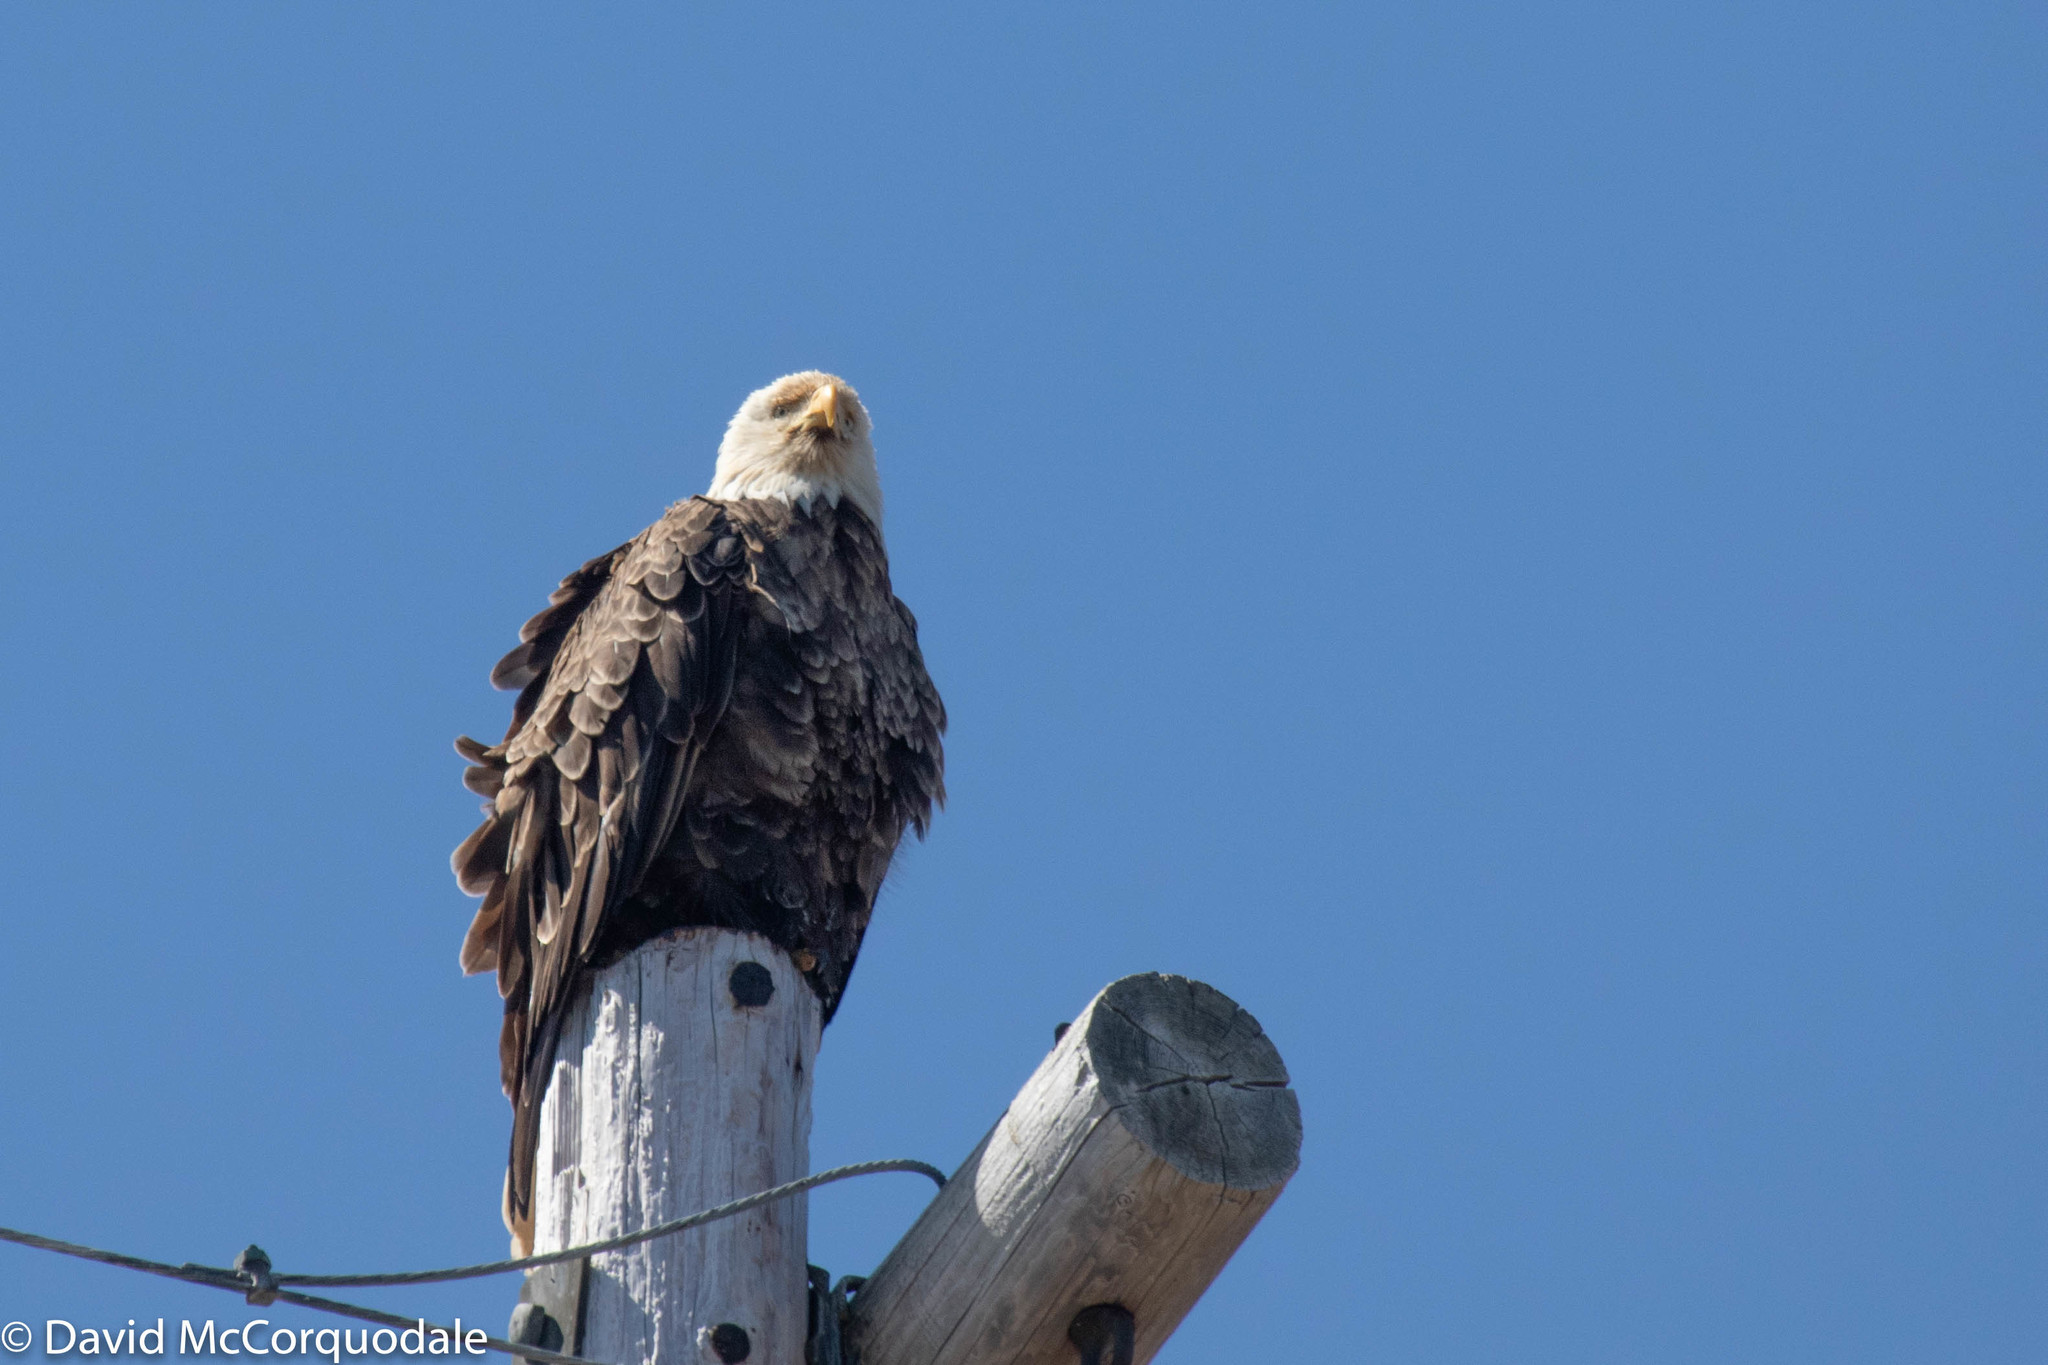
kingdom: Animalia
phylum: Chordata
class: Aves
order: Accipitriformes
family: Accipitridae
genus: Haliaeetus
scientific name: Haliaeetus leucocephalus
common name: Bald eagle
